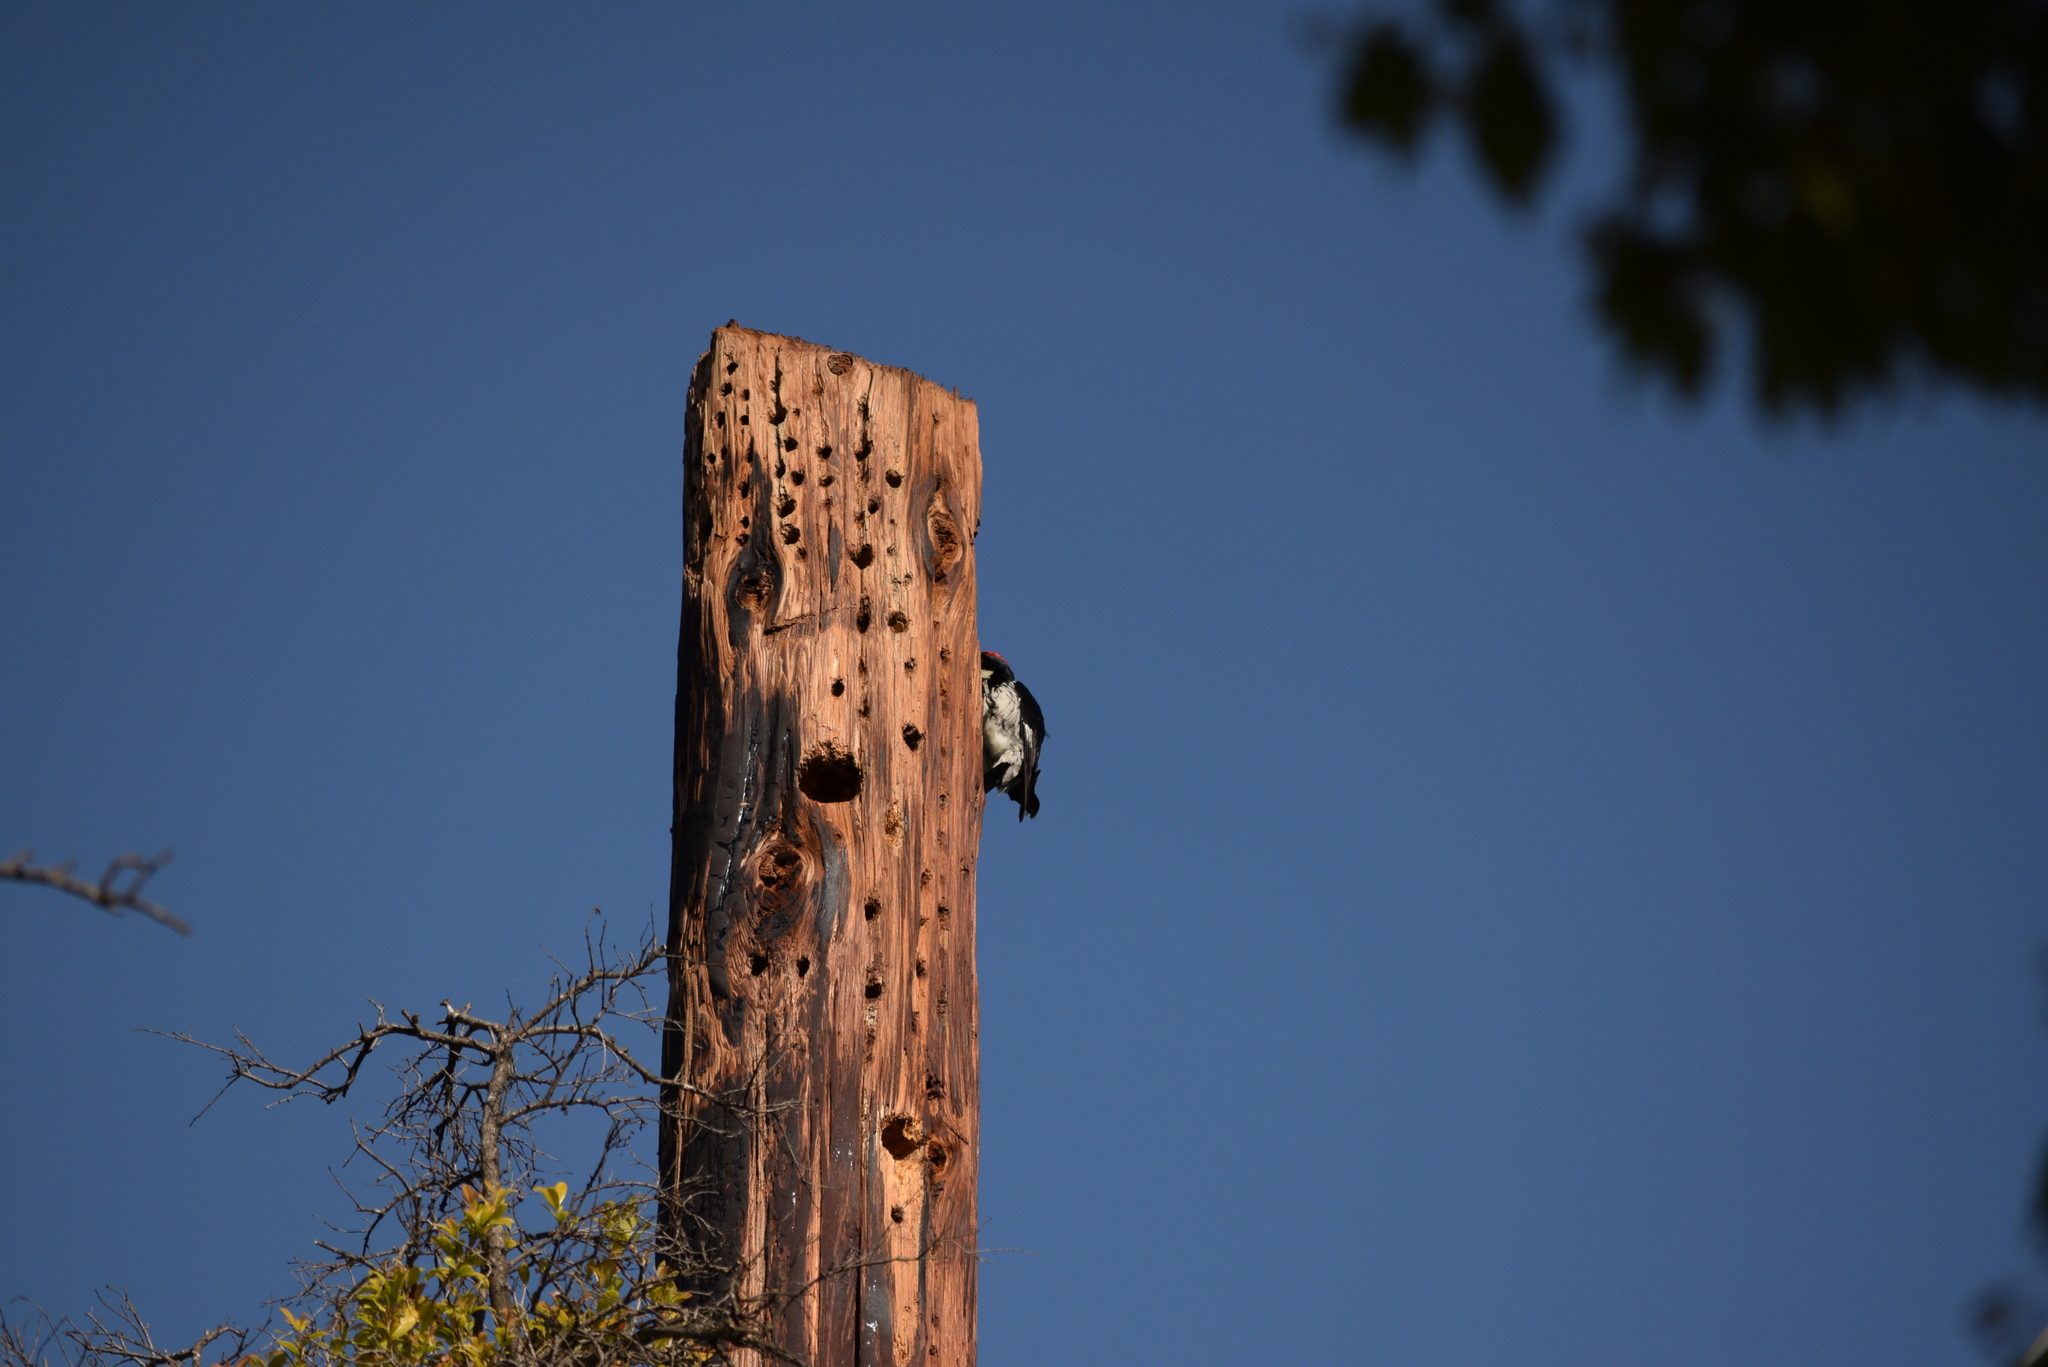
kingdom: Animalia
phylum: Chordata
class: Aves
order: Piciformes
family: Picidae
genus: Melanerpes
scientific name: Melanerpes formicivorus
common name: Acorn woodpecker
